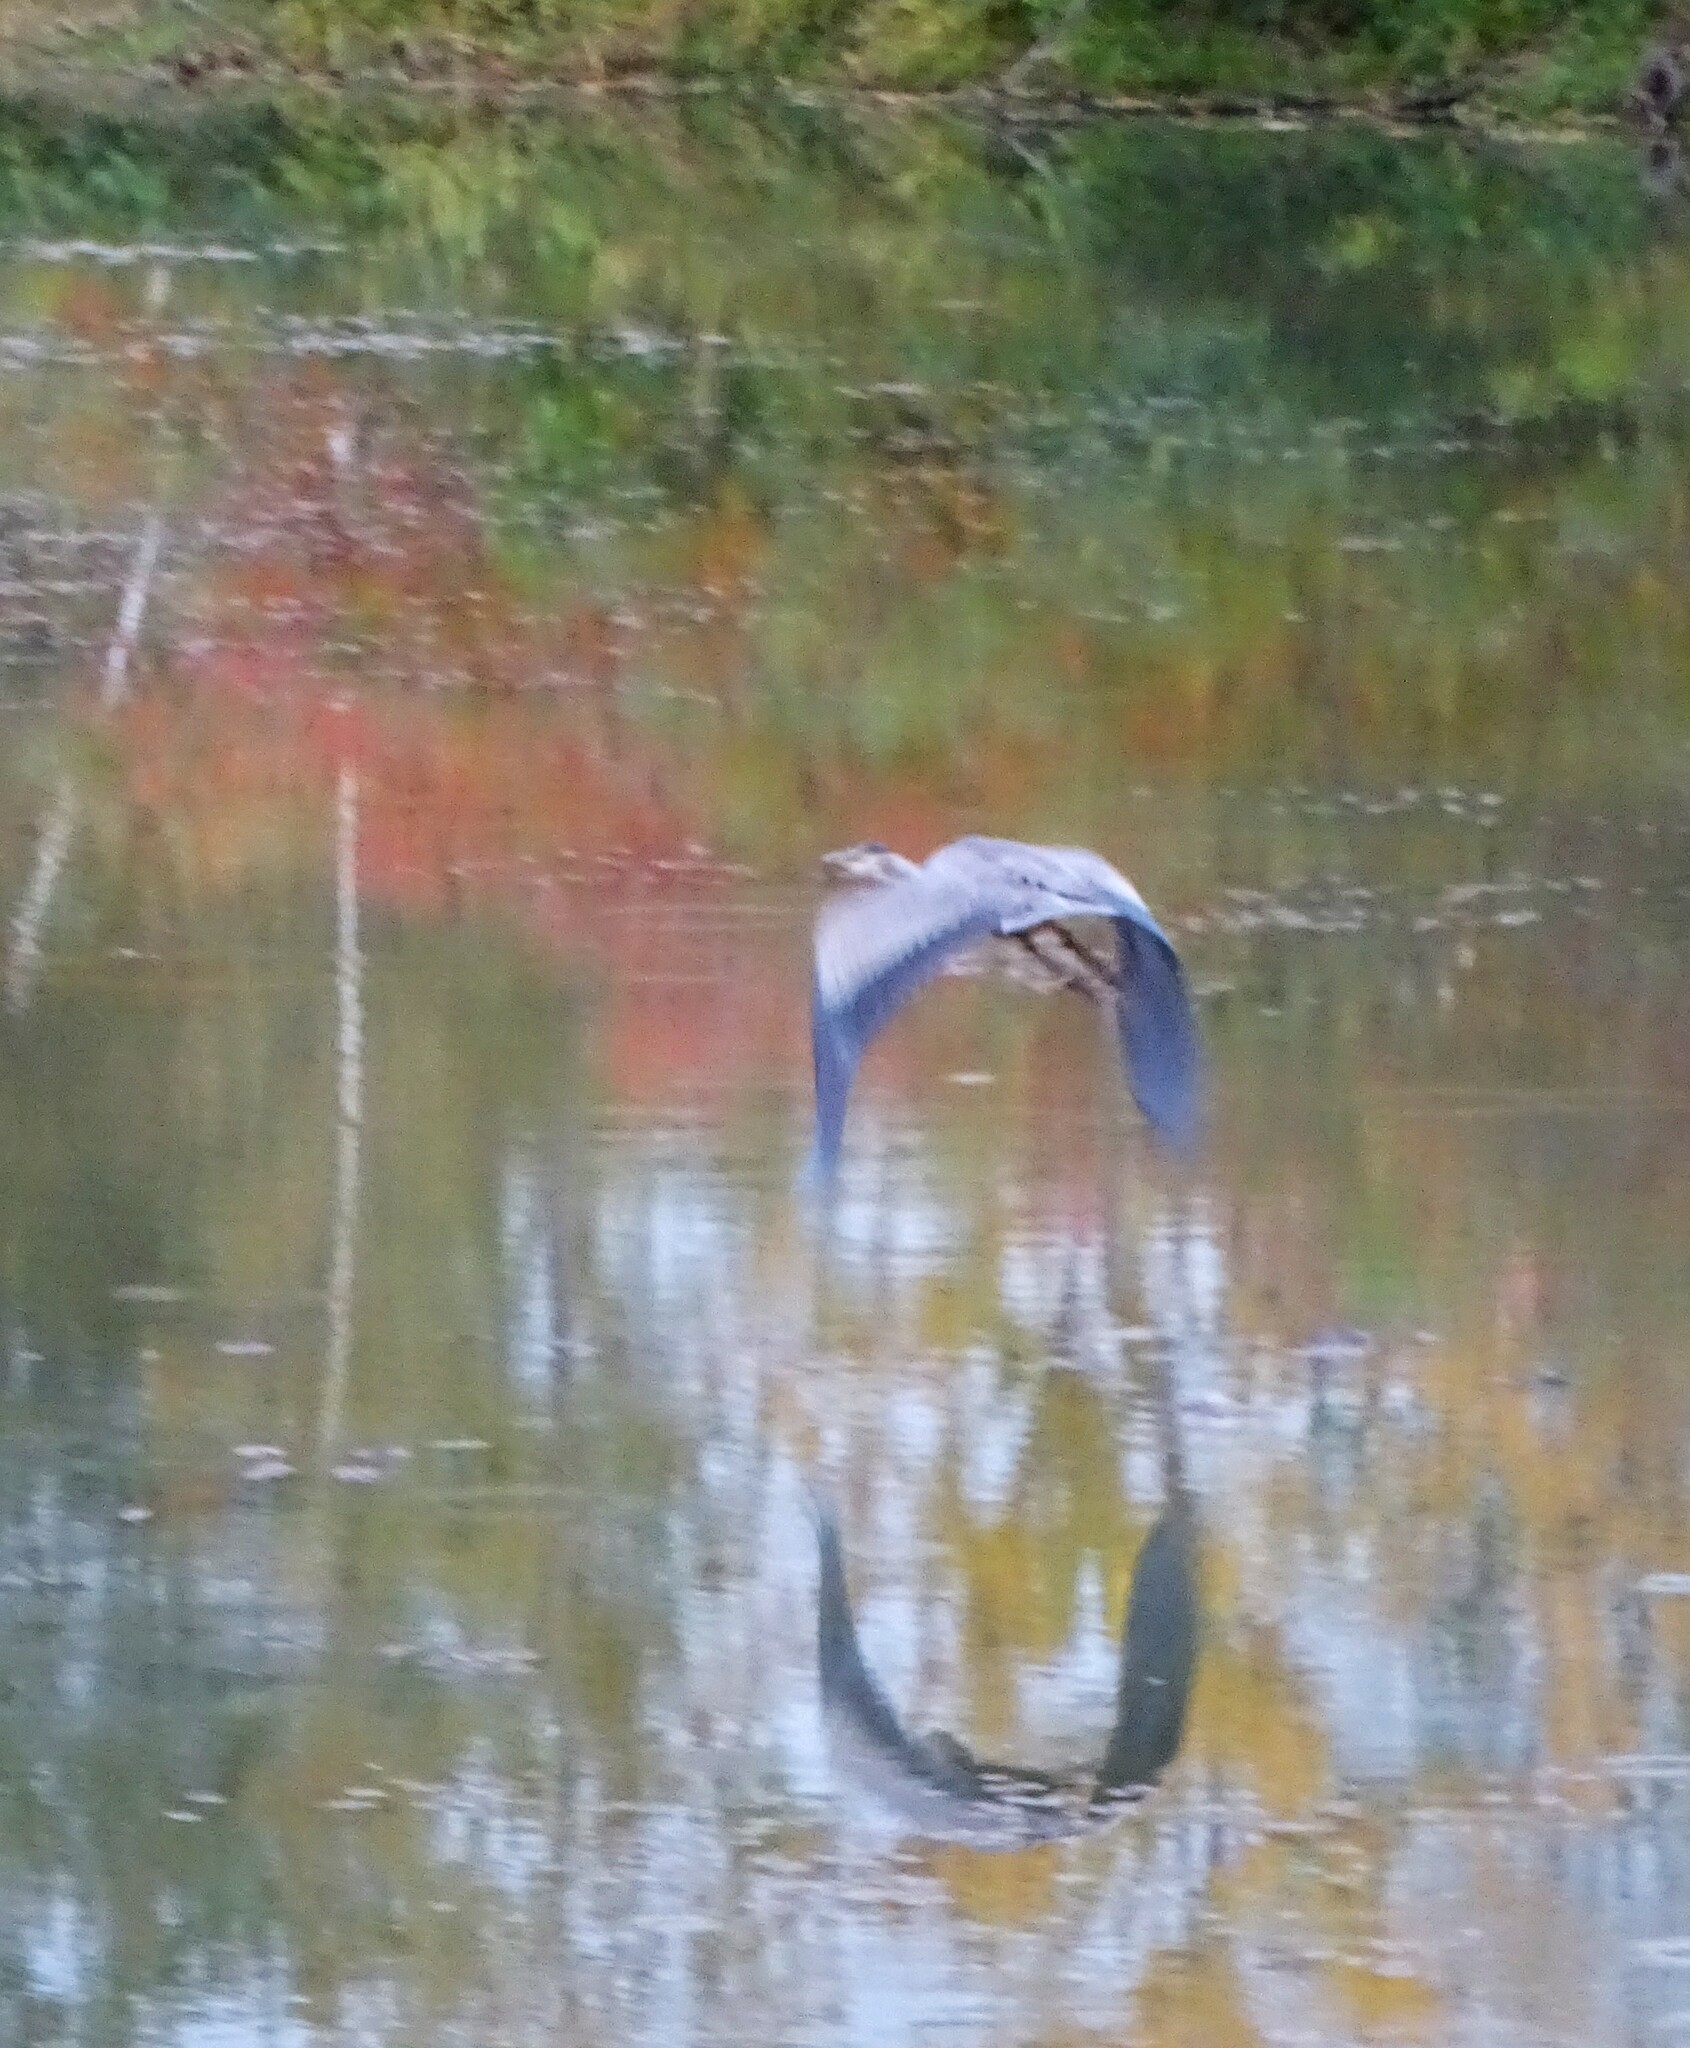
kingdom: Animalia
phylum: Chordata
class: Aves
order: Pelecaniformes
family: Ardeidae
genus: Ardea
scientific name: Ardea herodias
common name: Great blue heron
